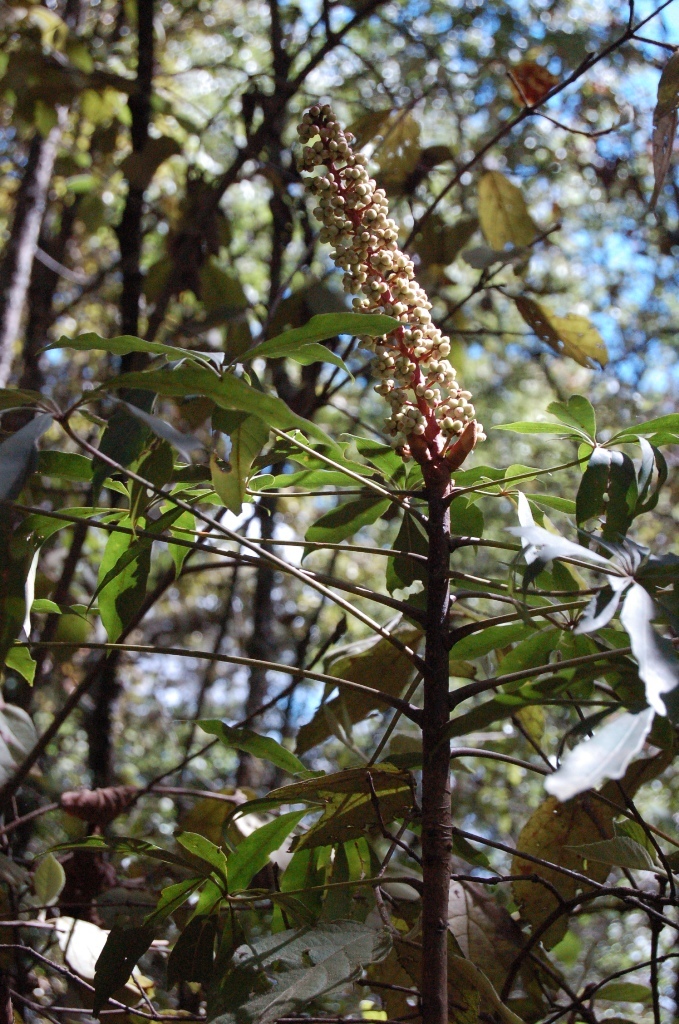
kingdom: Plantae
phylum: Tracheophyta
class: Magnoliopsida
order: Apiales
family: Araliaceae
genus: Oreopanax
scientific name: Oreopanax xalapensis
